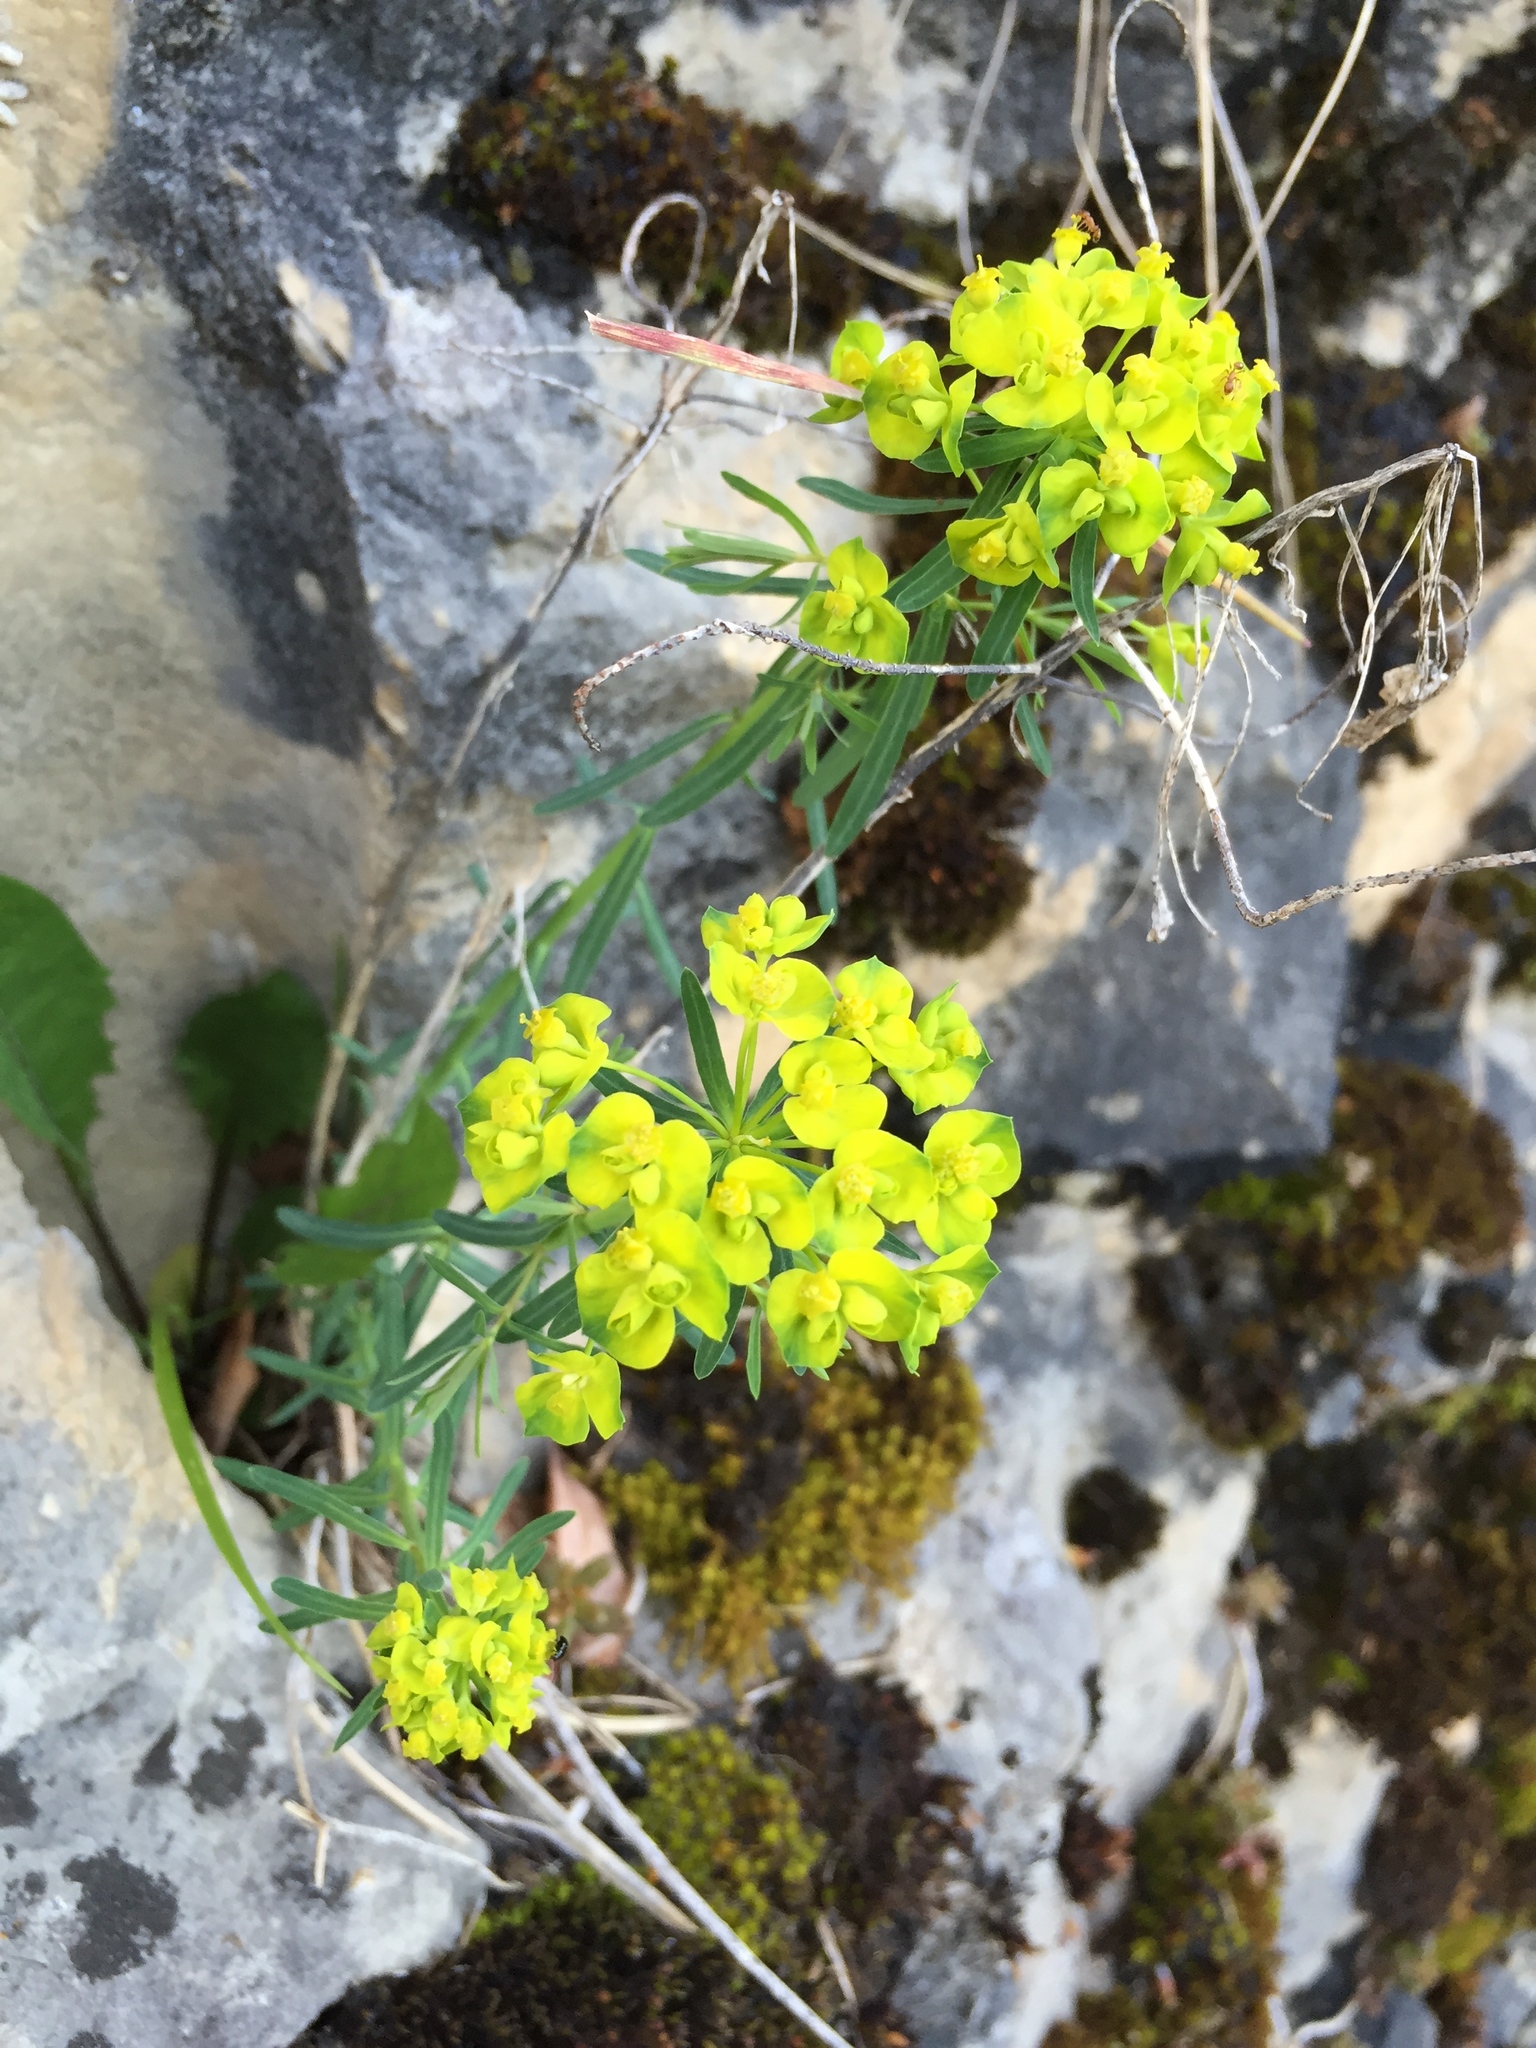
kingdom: Plantae
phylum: Tracheophyta
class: Magnoliopsida
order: Malpighiales
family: Euphorbiaceae
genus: Euphorbia
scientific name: Euphorbia cyparissias
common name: Cypress spurge
